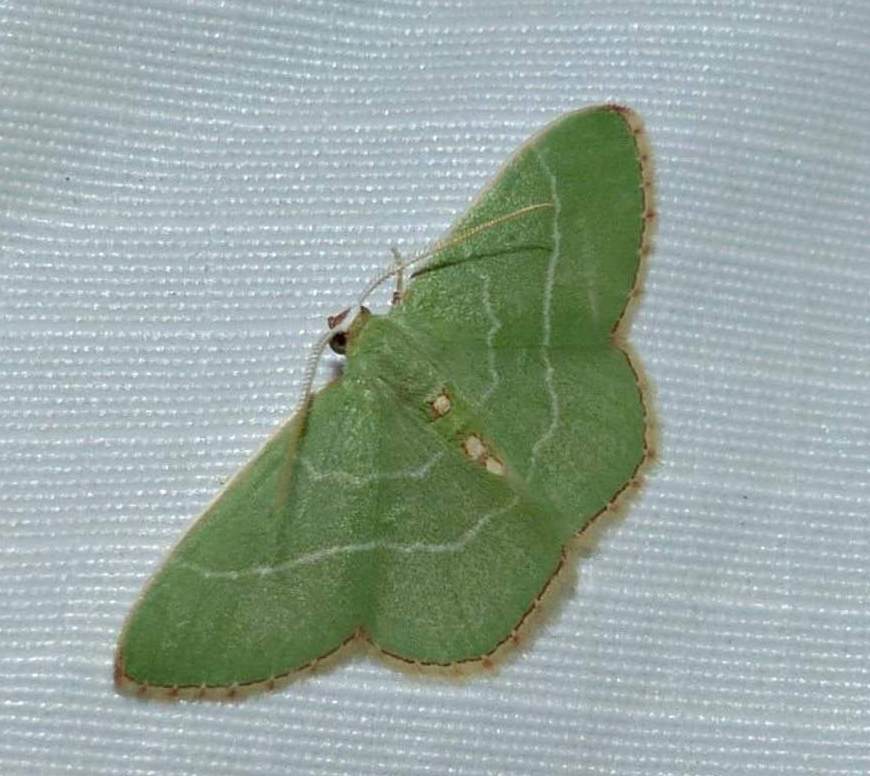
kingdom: Animalia
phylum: Arthropoda
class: Insecta
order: Lepidoptera
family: Geometridae
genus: Nemoria
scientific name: Nemoria bistriaria
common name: Red-fringed emerald
